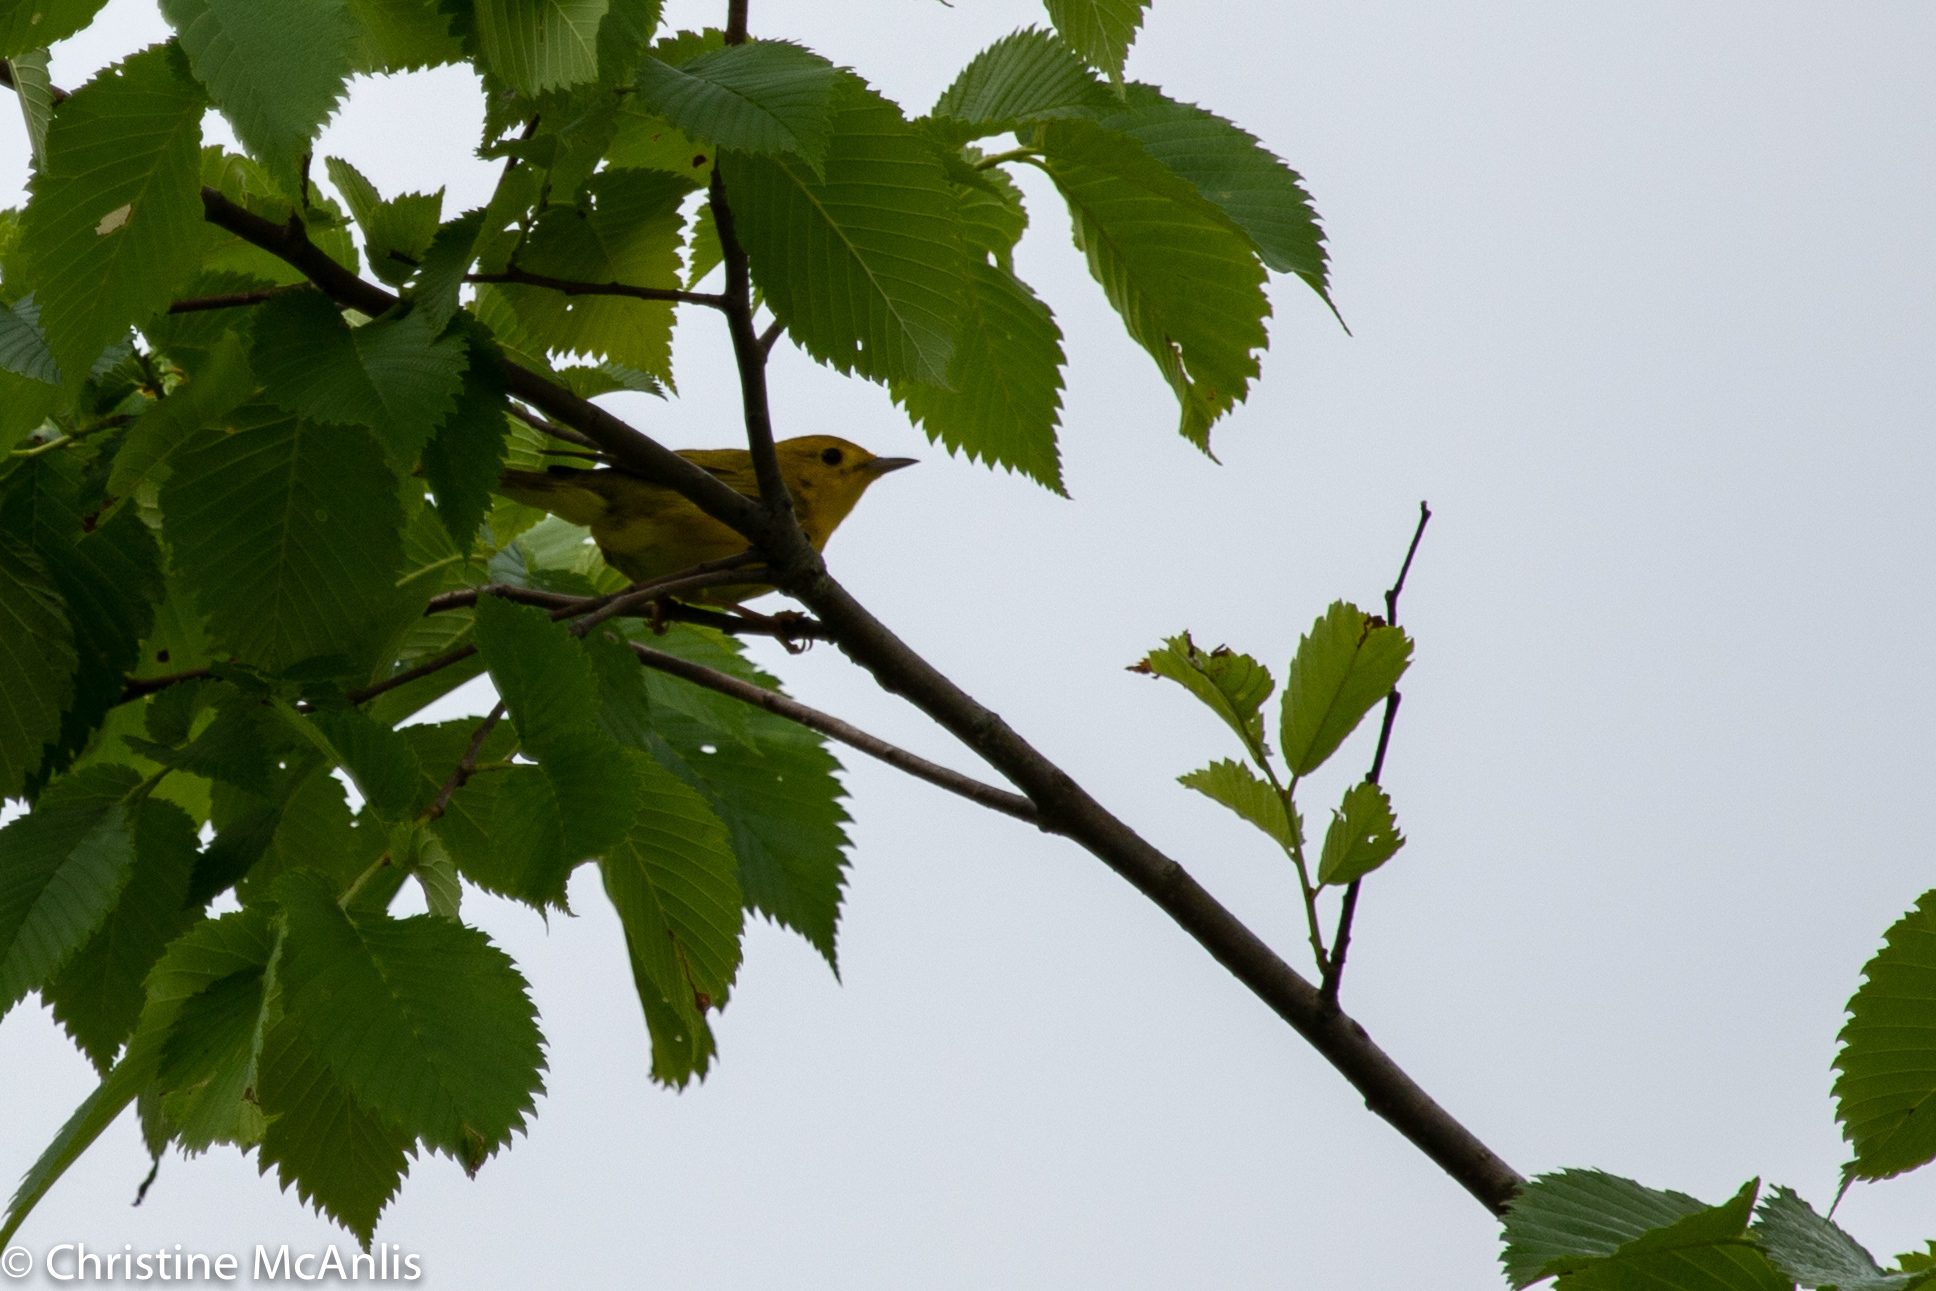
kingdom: Animalia
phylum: Chordata
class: Aves
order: Passeriformes
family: Parulidae
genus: Setophaga
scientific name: Setophaga petechia
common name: Yellow warbler
